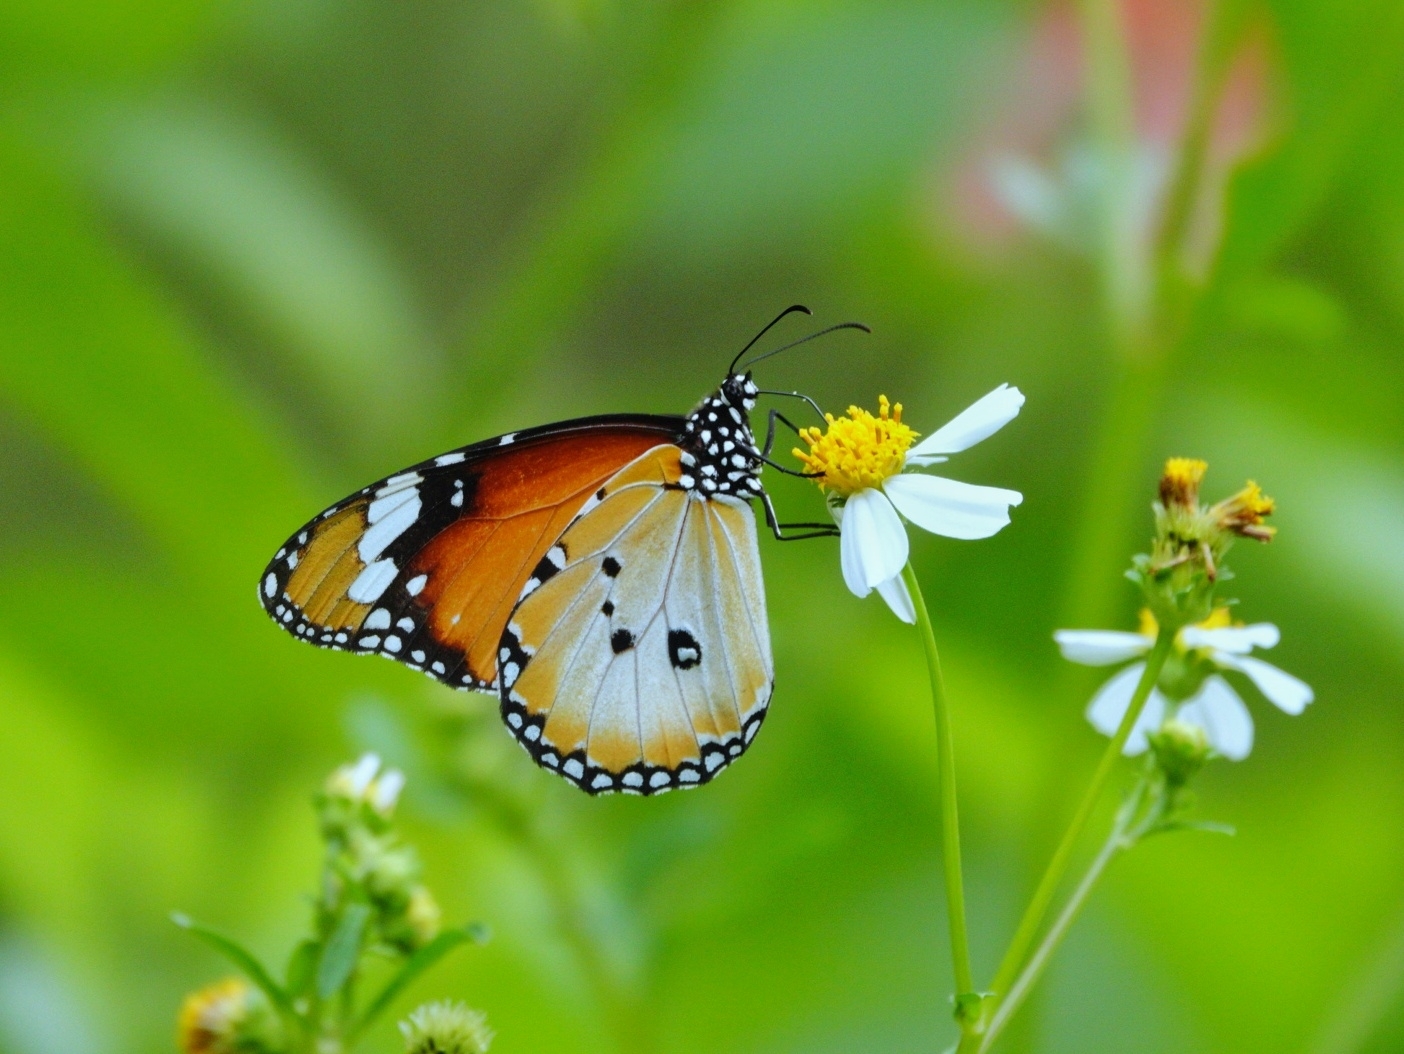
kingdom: Animalia
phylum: Arthropoda
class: Insecta
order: Lepidoptera
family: Nymphalidae
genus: Danaus
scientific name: Danaus chrysippus
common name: Plain tiger
